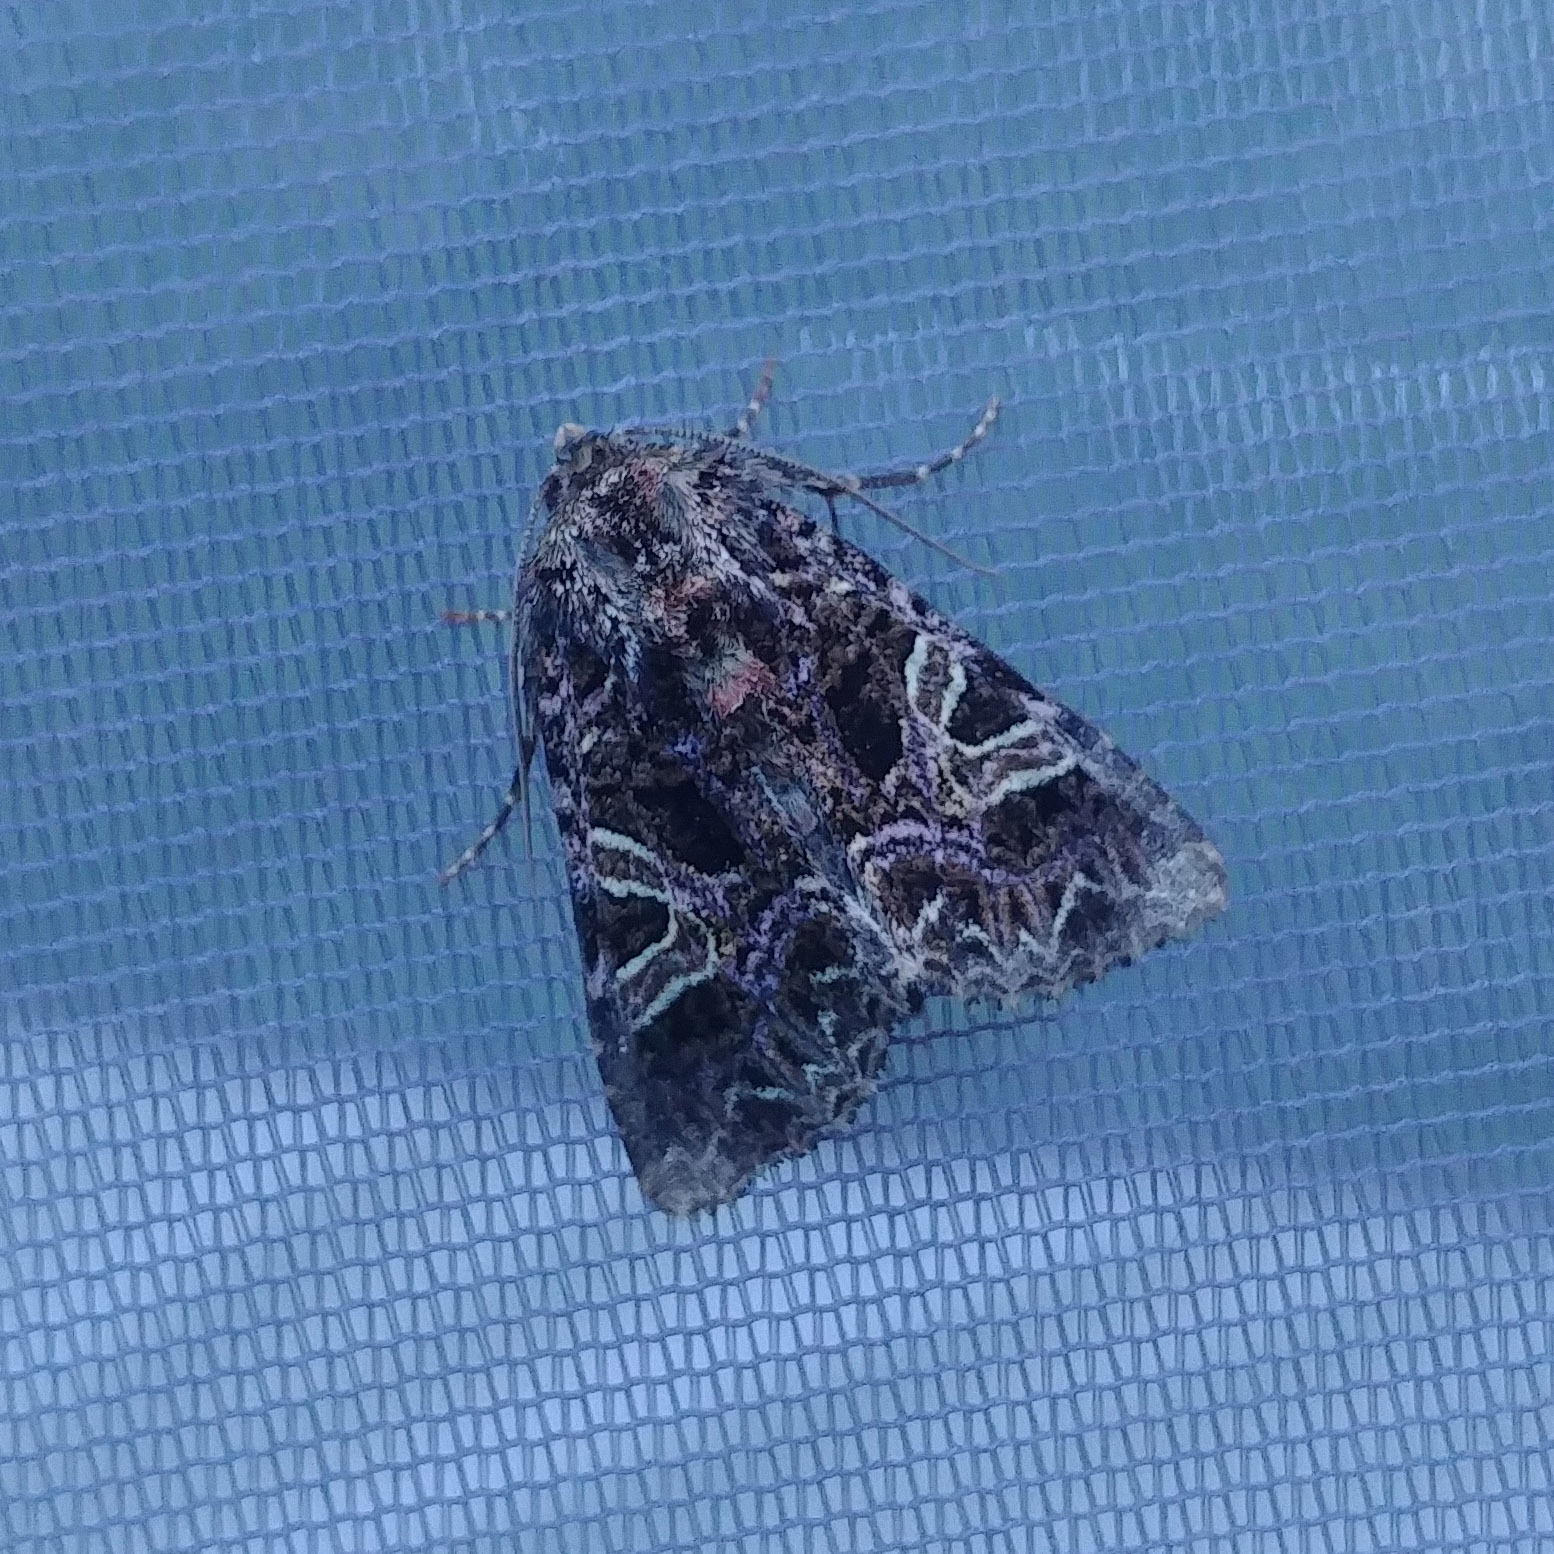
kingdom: Animalia
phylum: Arthropoda
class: Insecta
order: Lepidoptera
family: Noctuidae
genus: Sideridis
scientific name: Sideridis rivularis
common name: Campion
